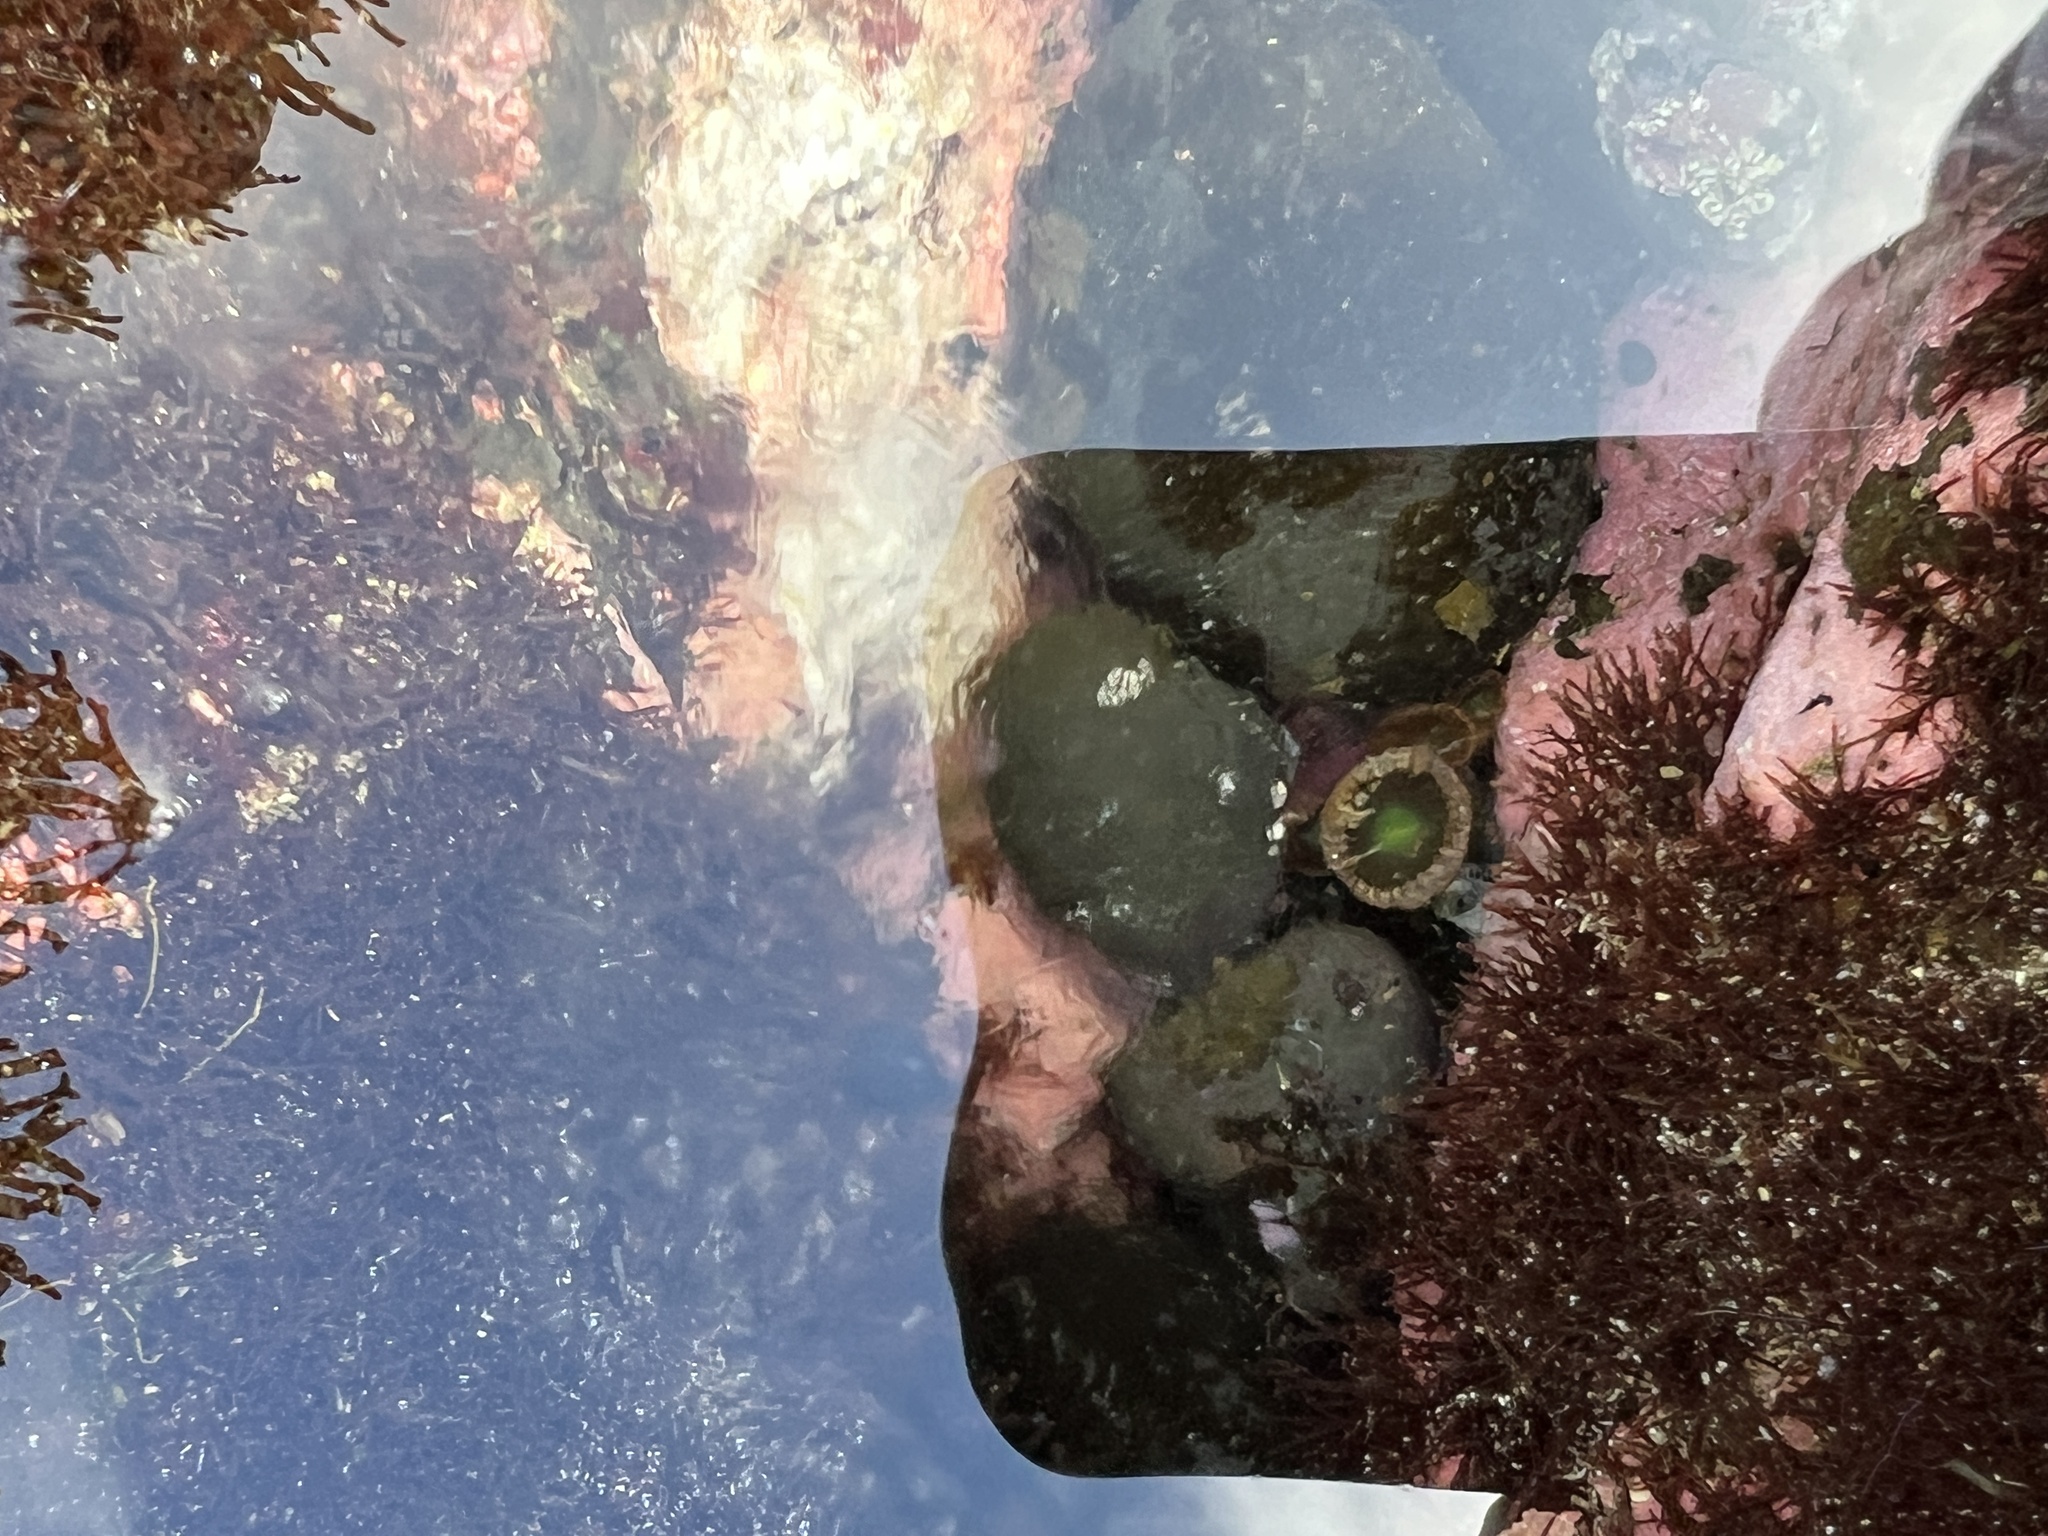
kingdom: Animalia
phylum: Cnidaria
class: Anthozoa
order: Zoantharia
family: Sphenopidae
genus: Palythoa
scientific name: Palythoa mutuki
